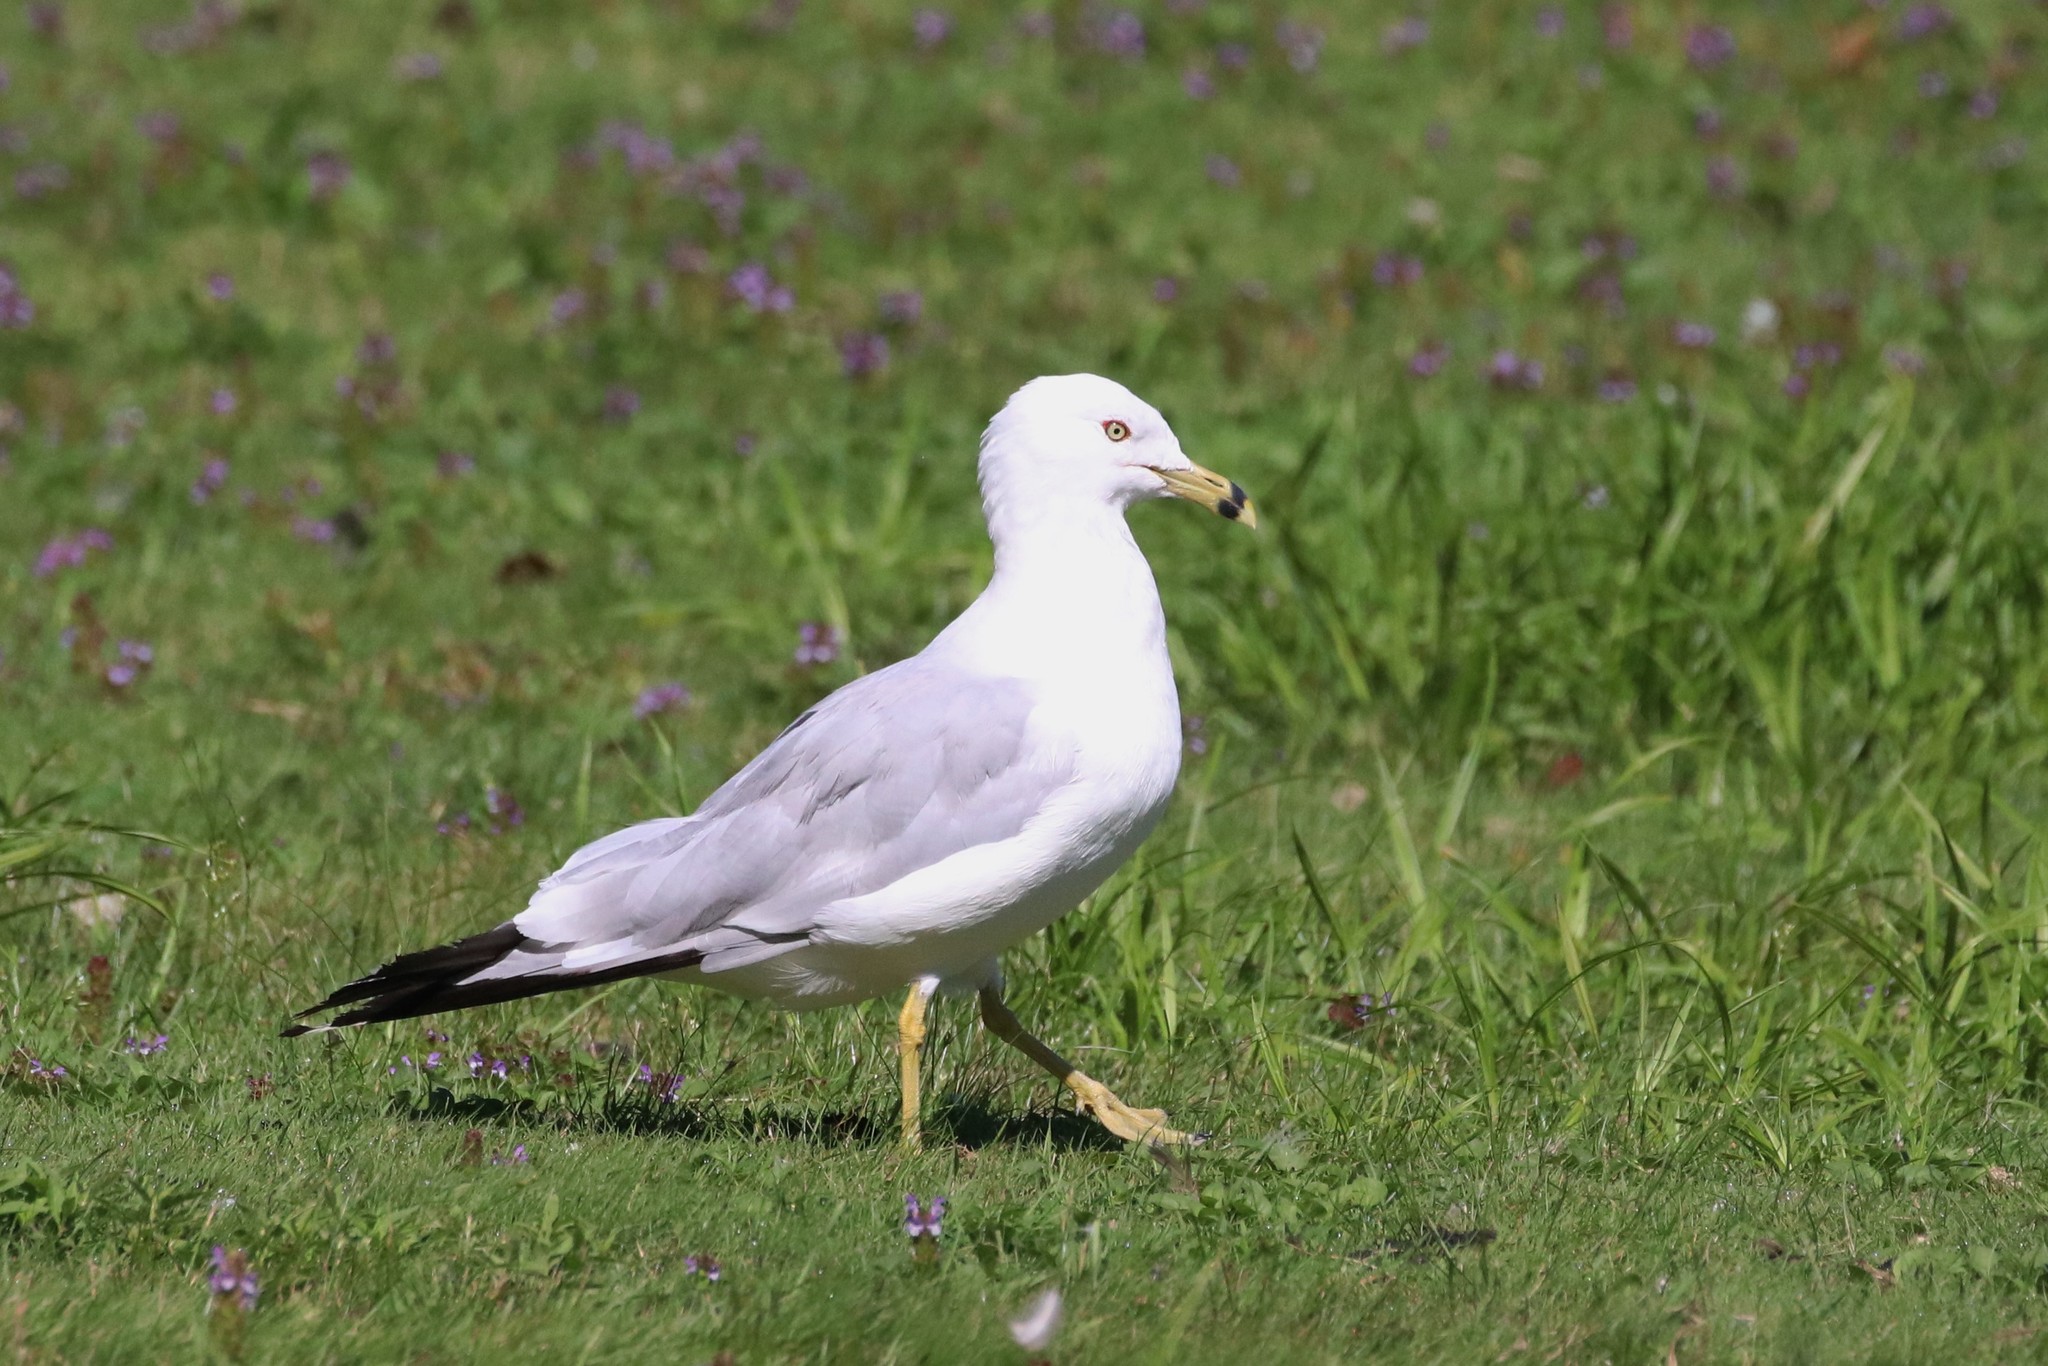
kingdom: Animalia
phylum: Chordata
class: Aves
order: Charadriiformes
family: Laridae
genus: Larus
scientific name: Larus delawarensis
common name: Ring-billed gull
